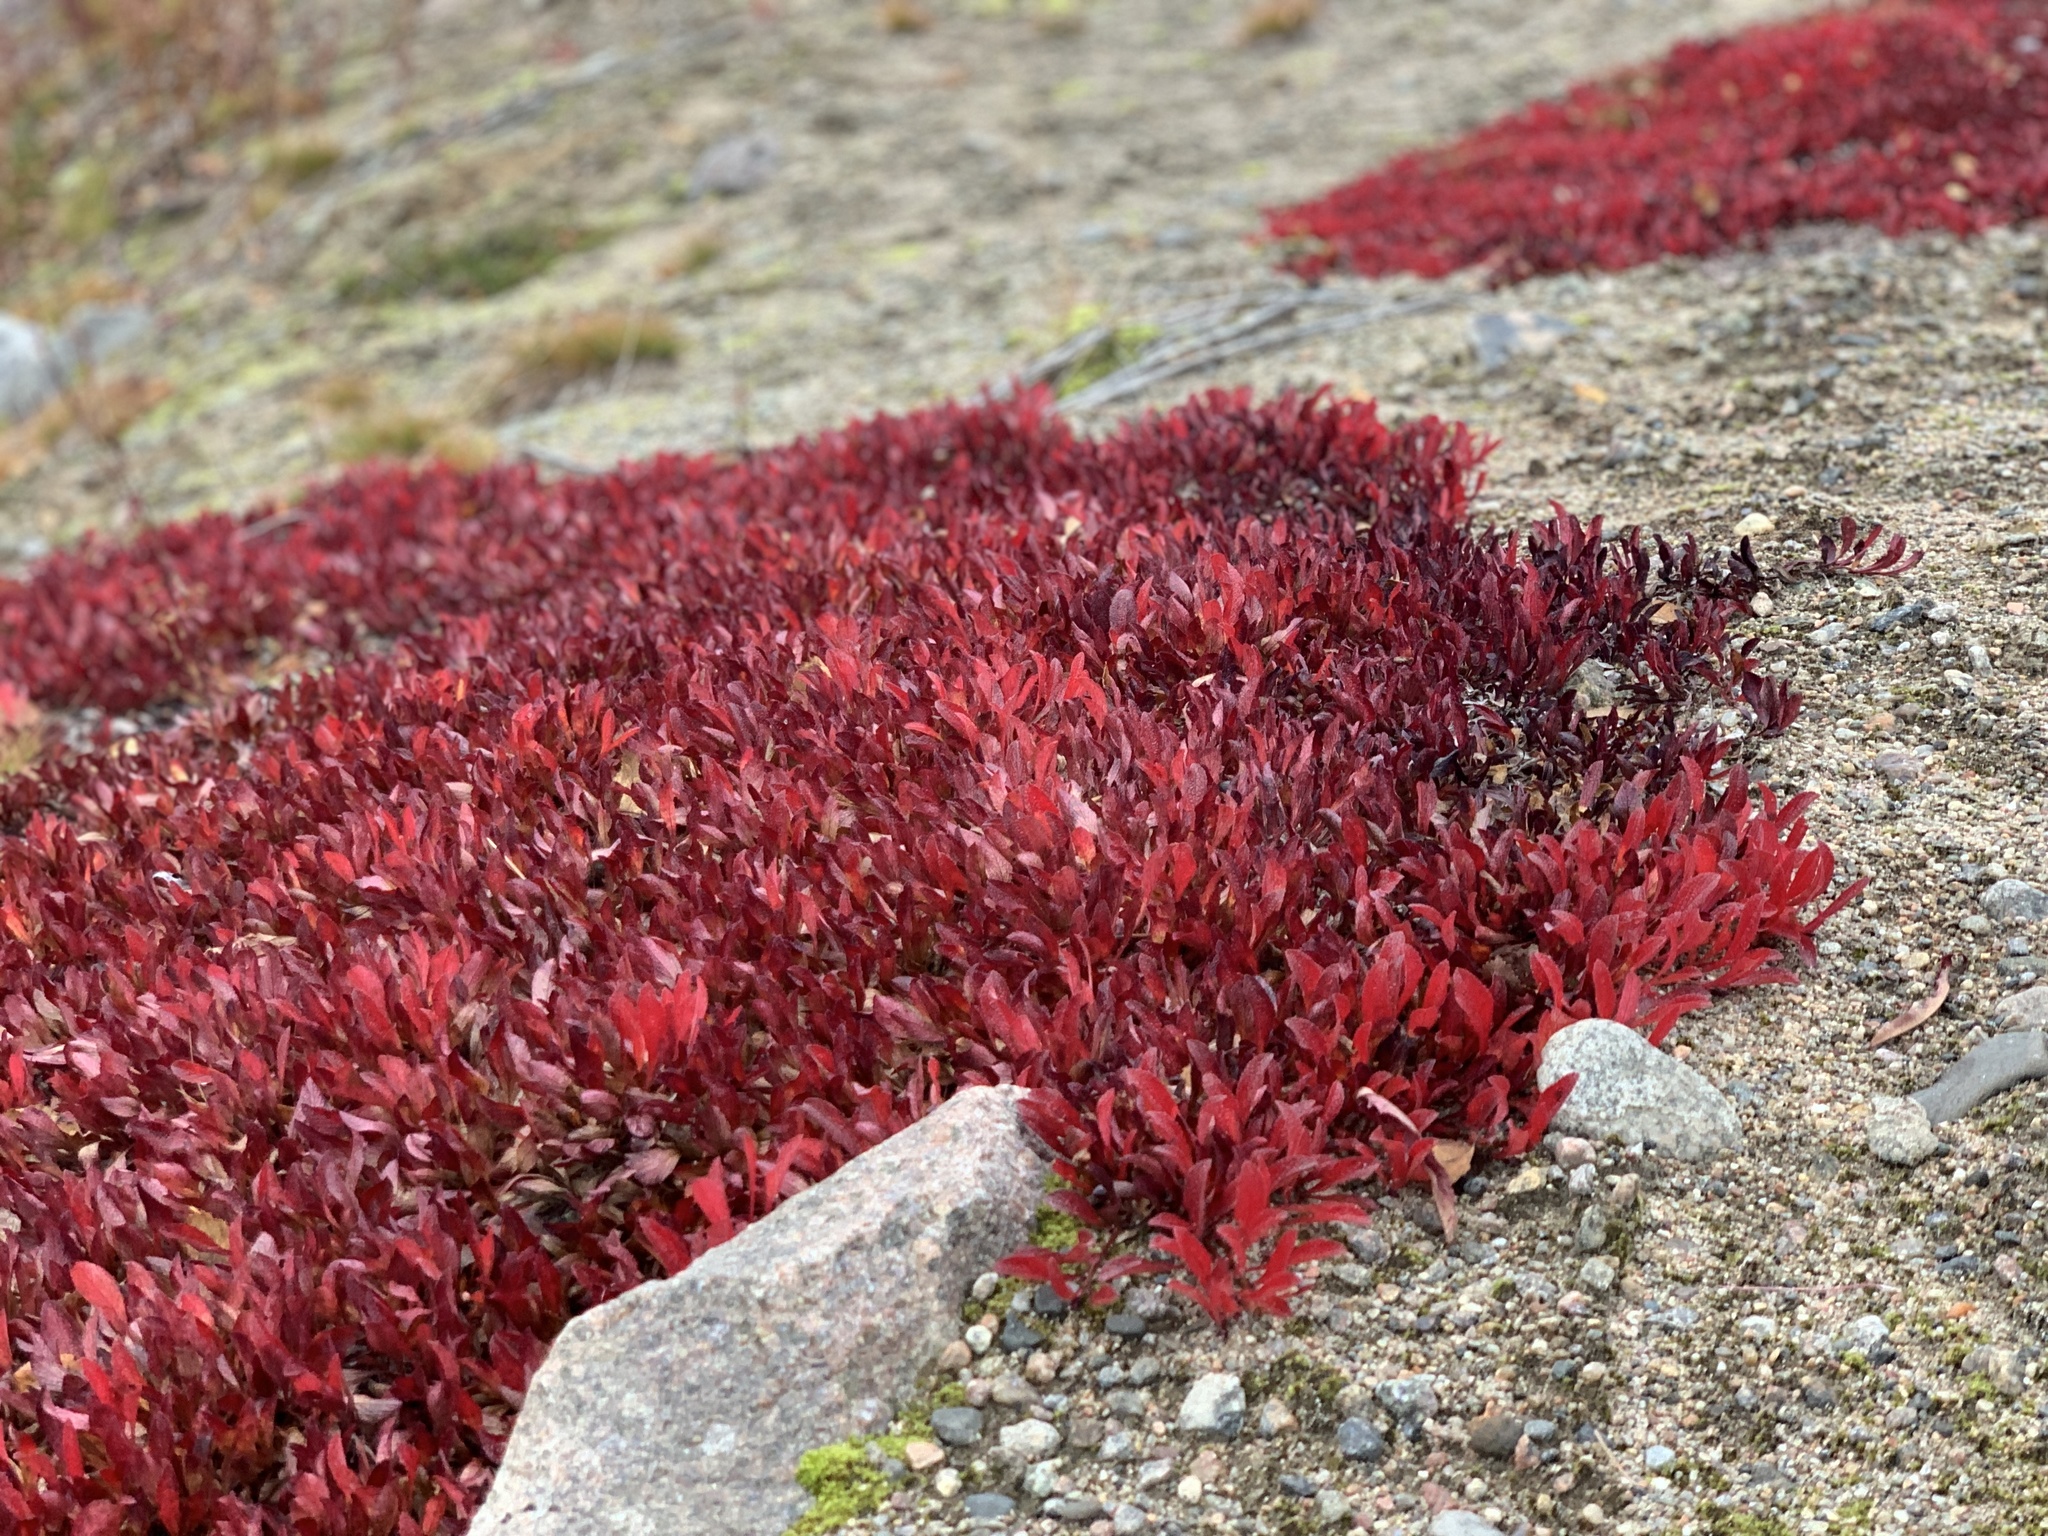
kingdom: Plantae
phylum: Tracheophyta
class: Magnoliopsida
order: Ericales
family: Ericaceae
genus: Arctostaphylos
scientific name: Arctostaphylos alpinus
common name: Alpine bearberry
